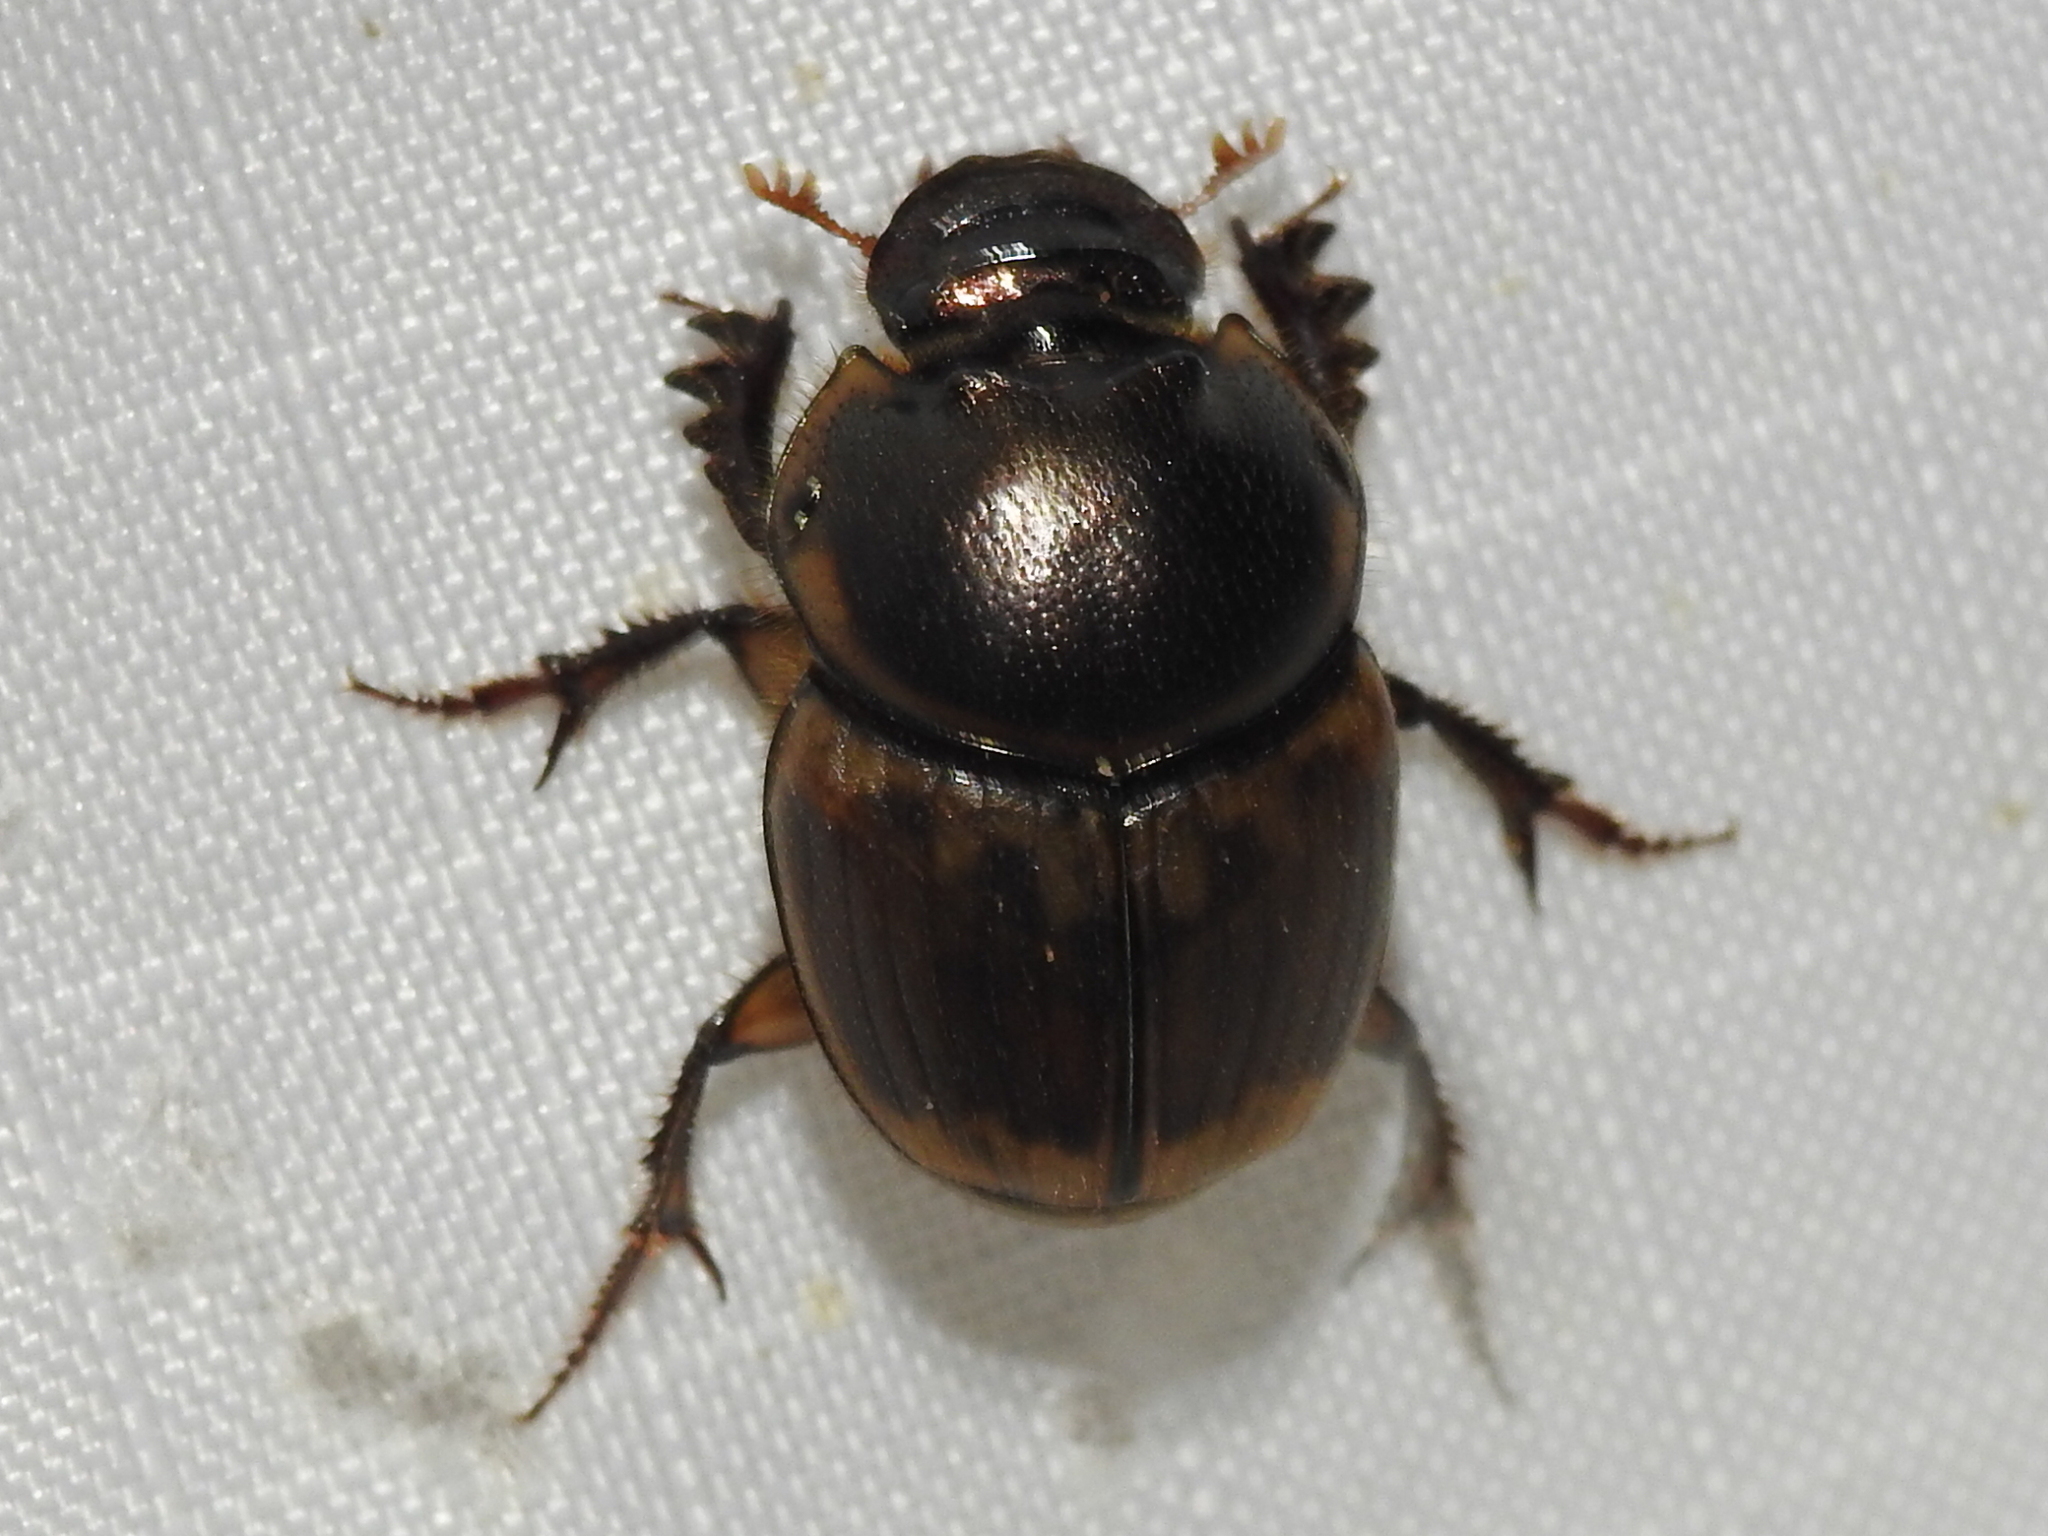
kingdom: Animalia
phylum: Arthropoda
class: Insecta
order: Coleoptera
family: Scarabaeidae
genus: Digitonthophagus
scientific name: Digitonthophagus gazella
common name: Brown dung beetle
